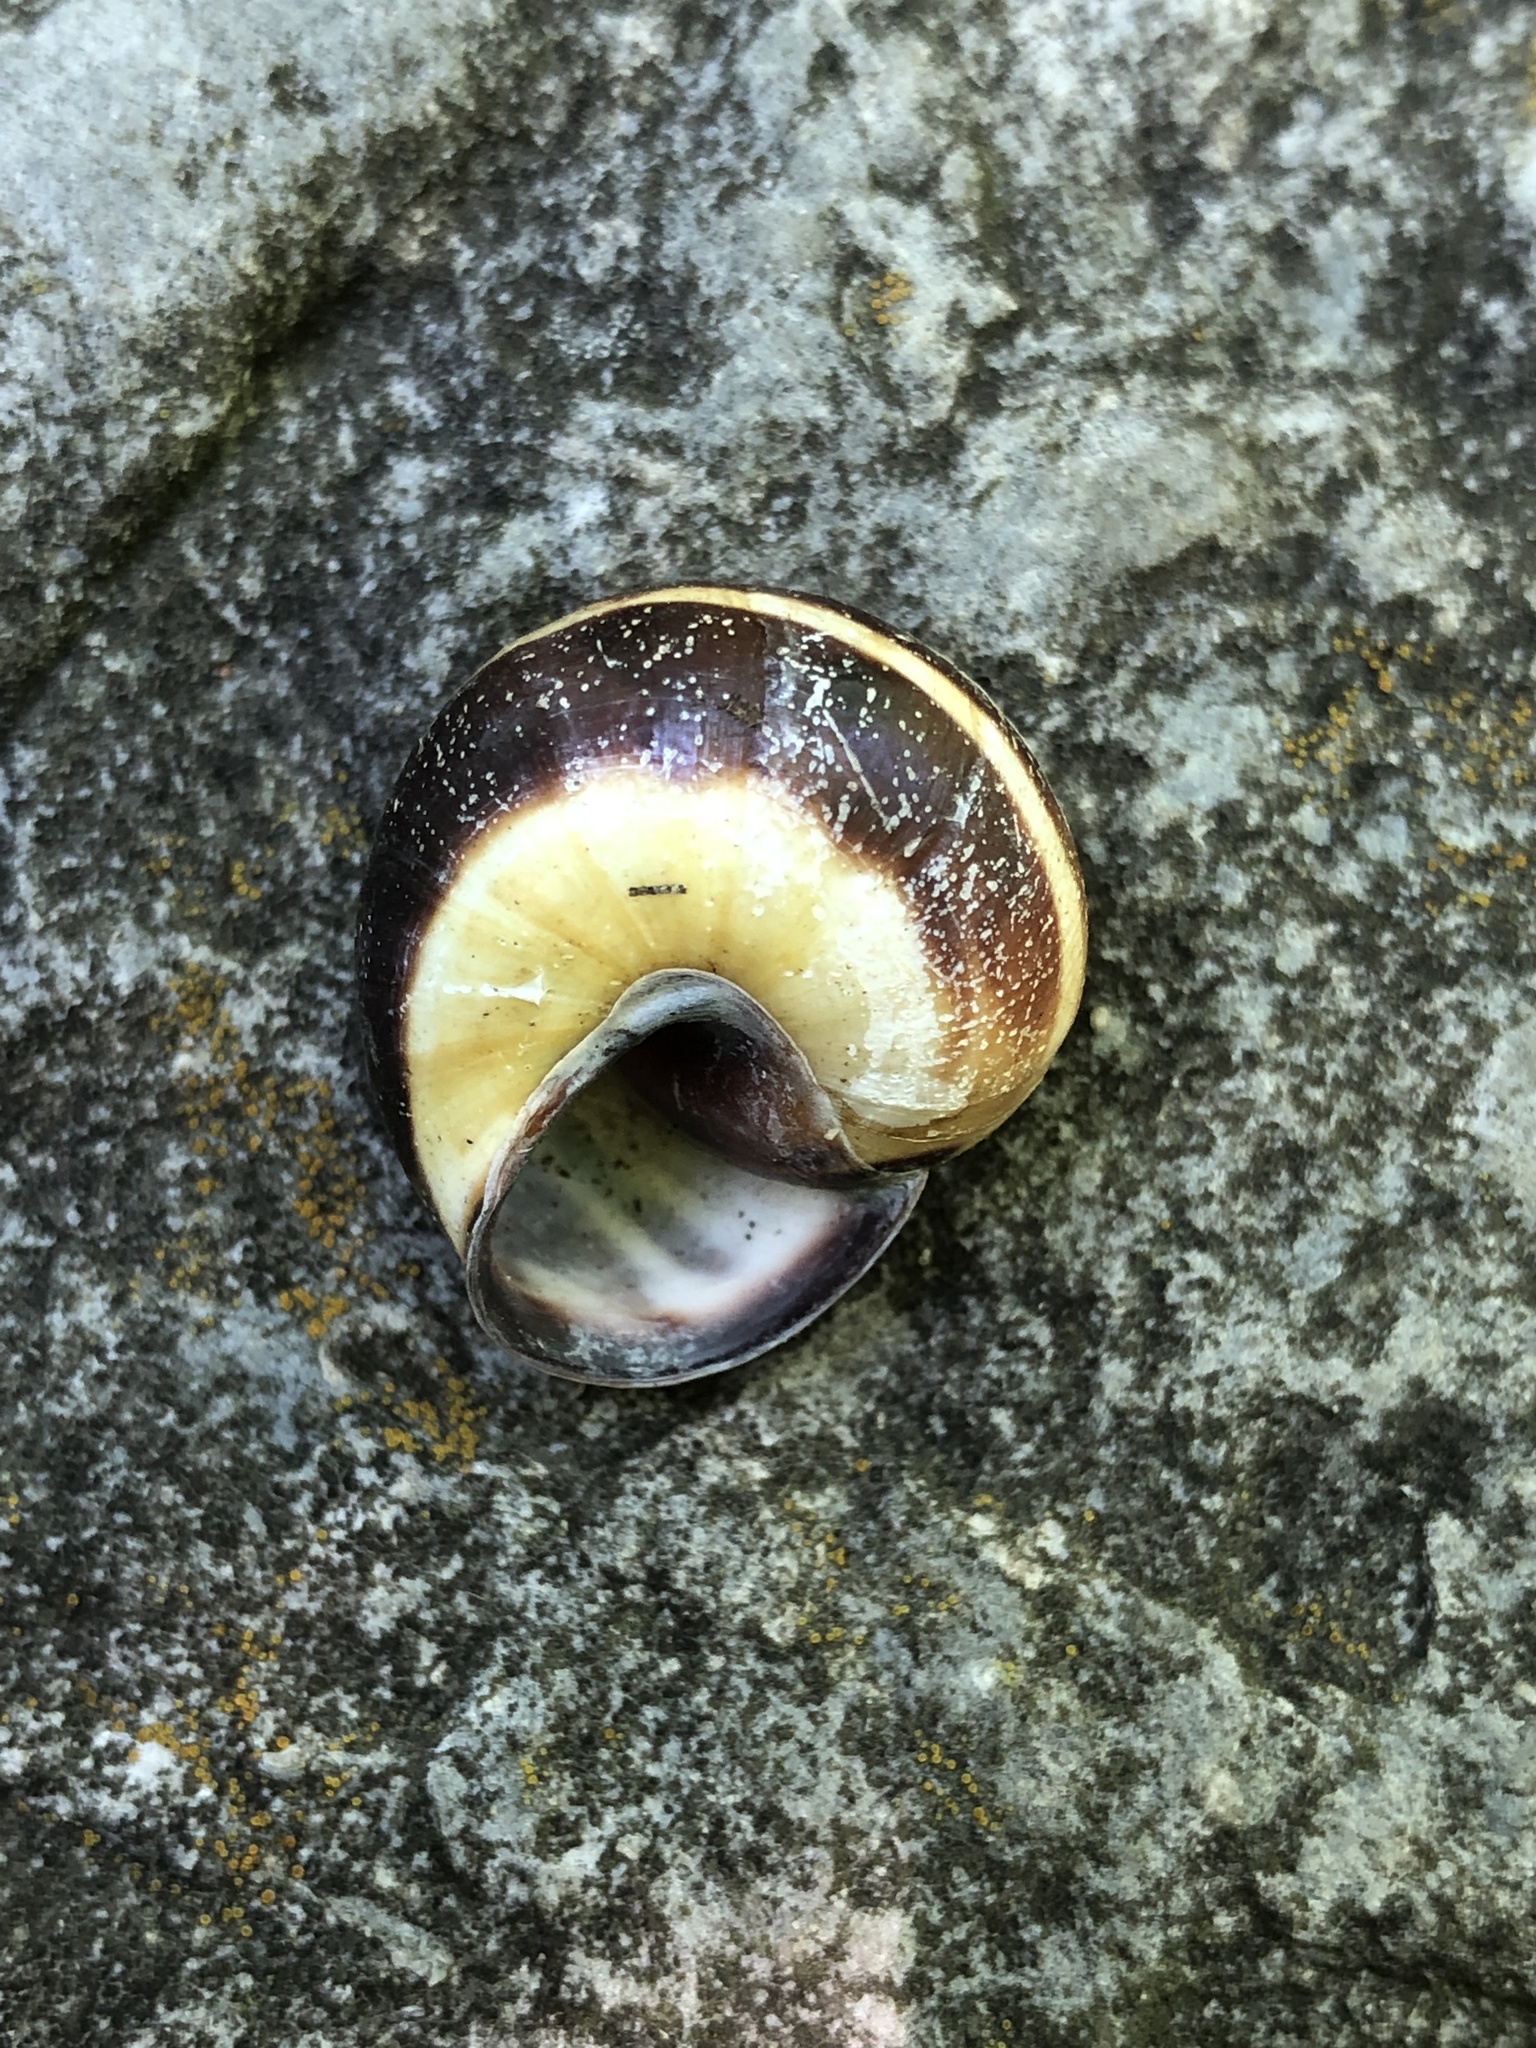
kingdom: Animalia
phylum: Mollusca
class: Gastropoda
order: Stylommatophora
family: Helicidae
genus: Cepaea
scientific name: Cepaea nemoralis
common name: Grovesnail
